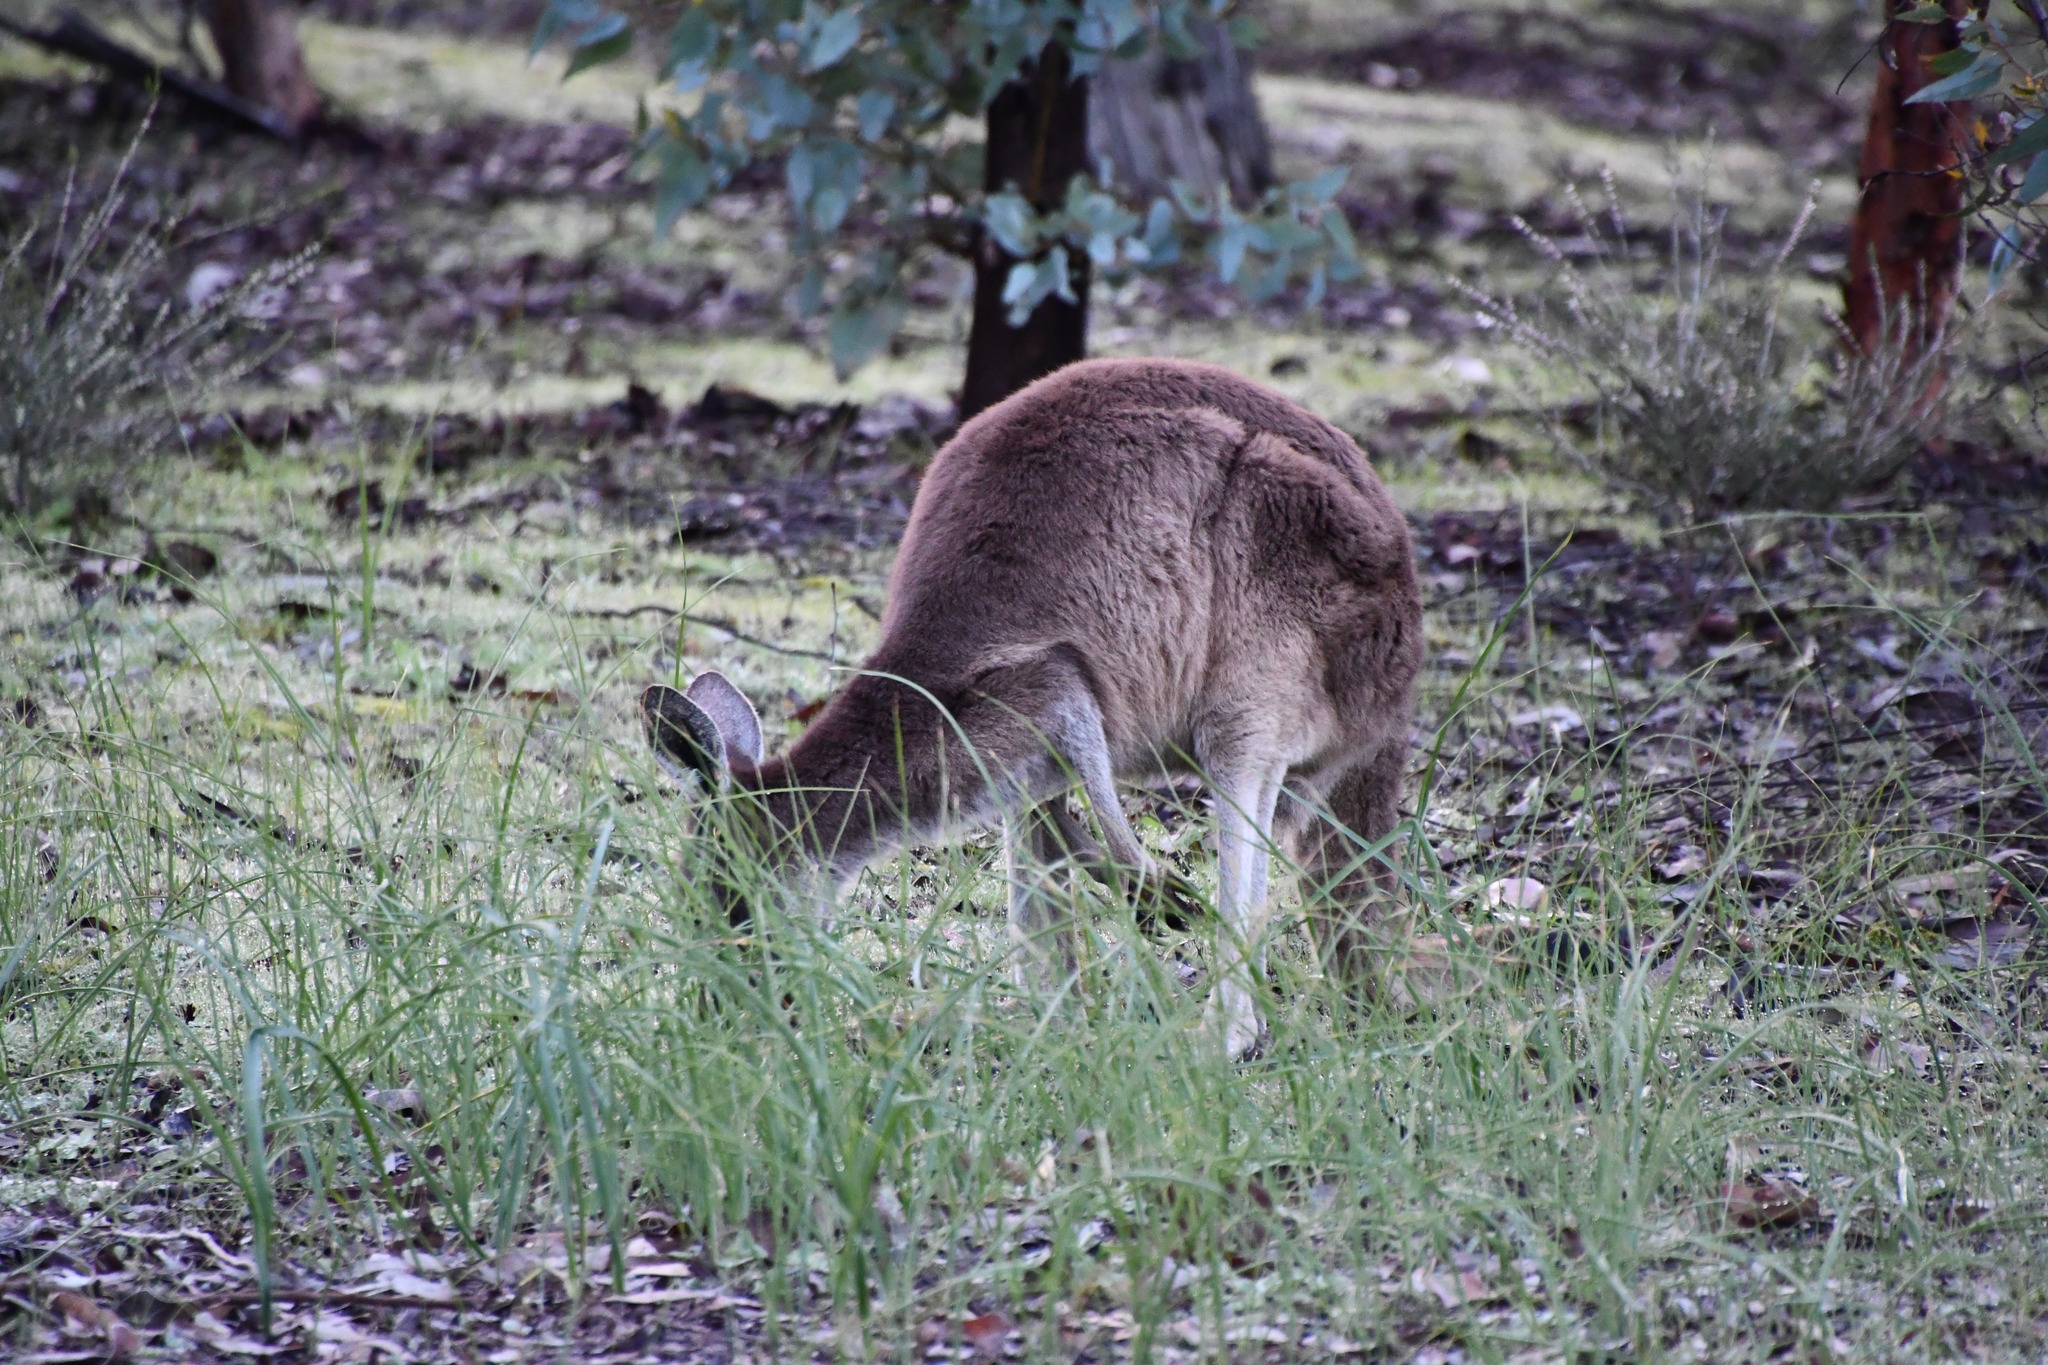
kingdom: Animalia
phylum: Chordata
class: Mammalia
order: Diprotodontia
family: Macropodidae
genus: Macropus
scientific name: Macropus fuliginosus
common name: Western grey kangaroo
